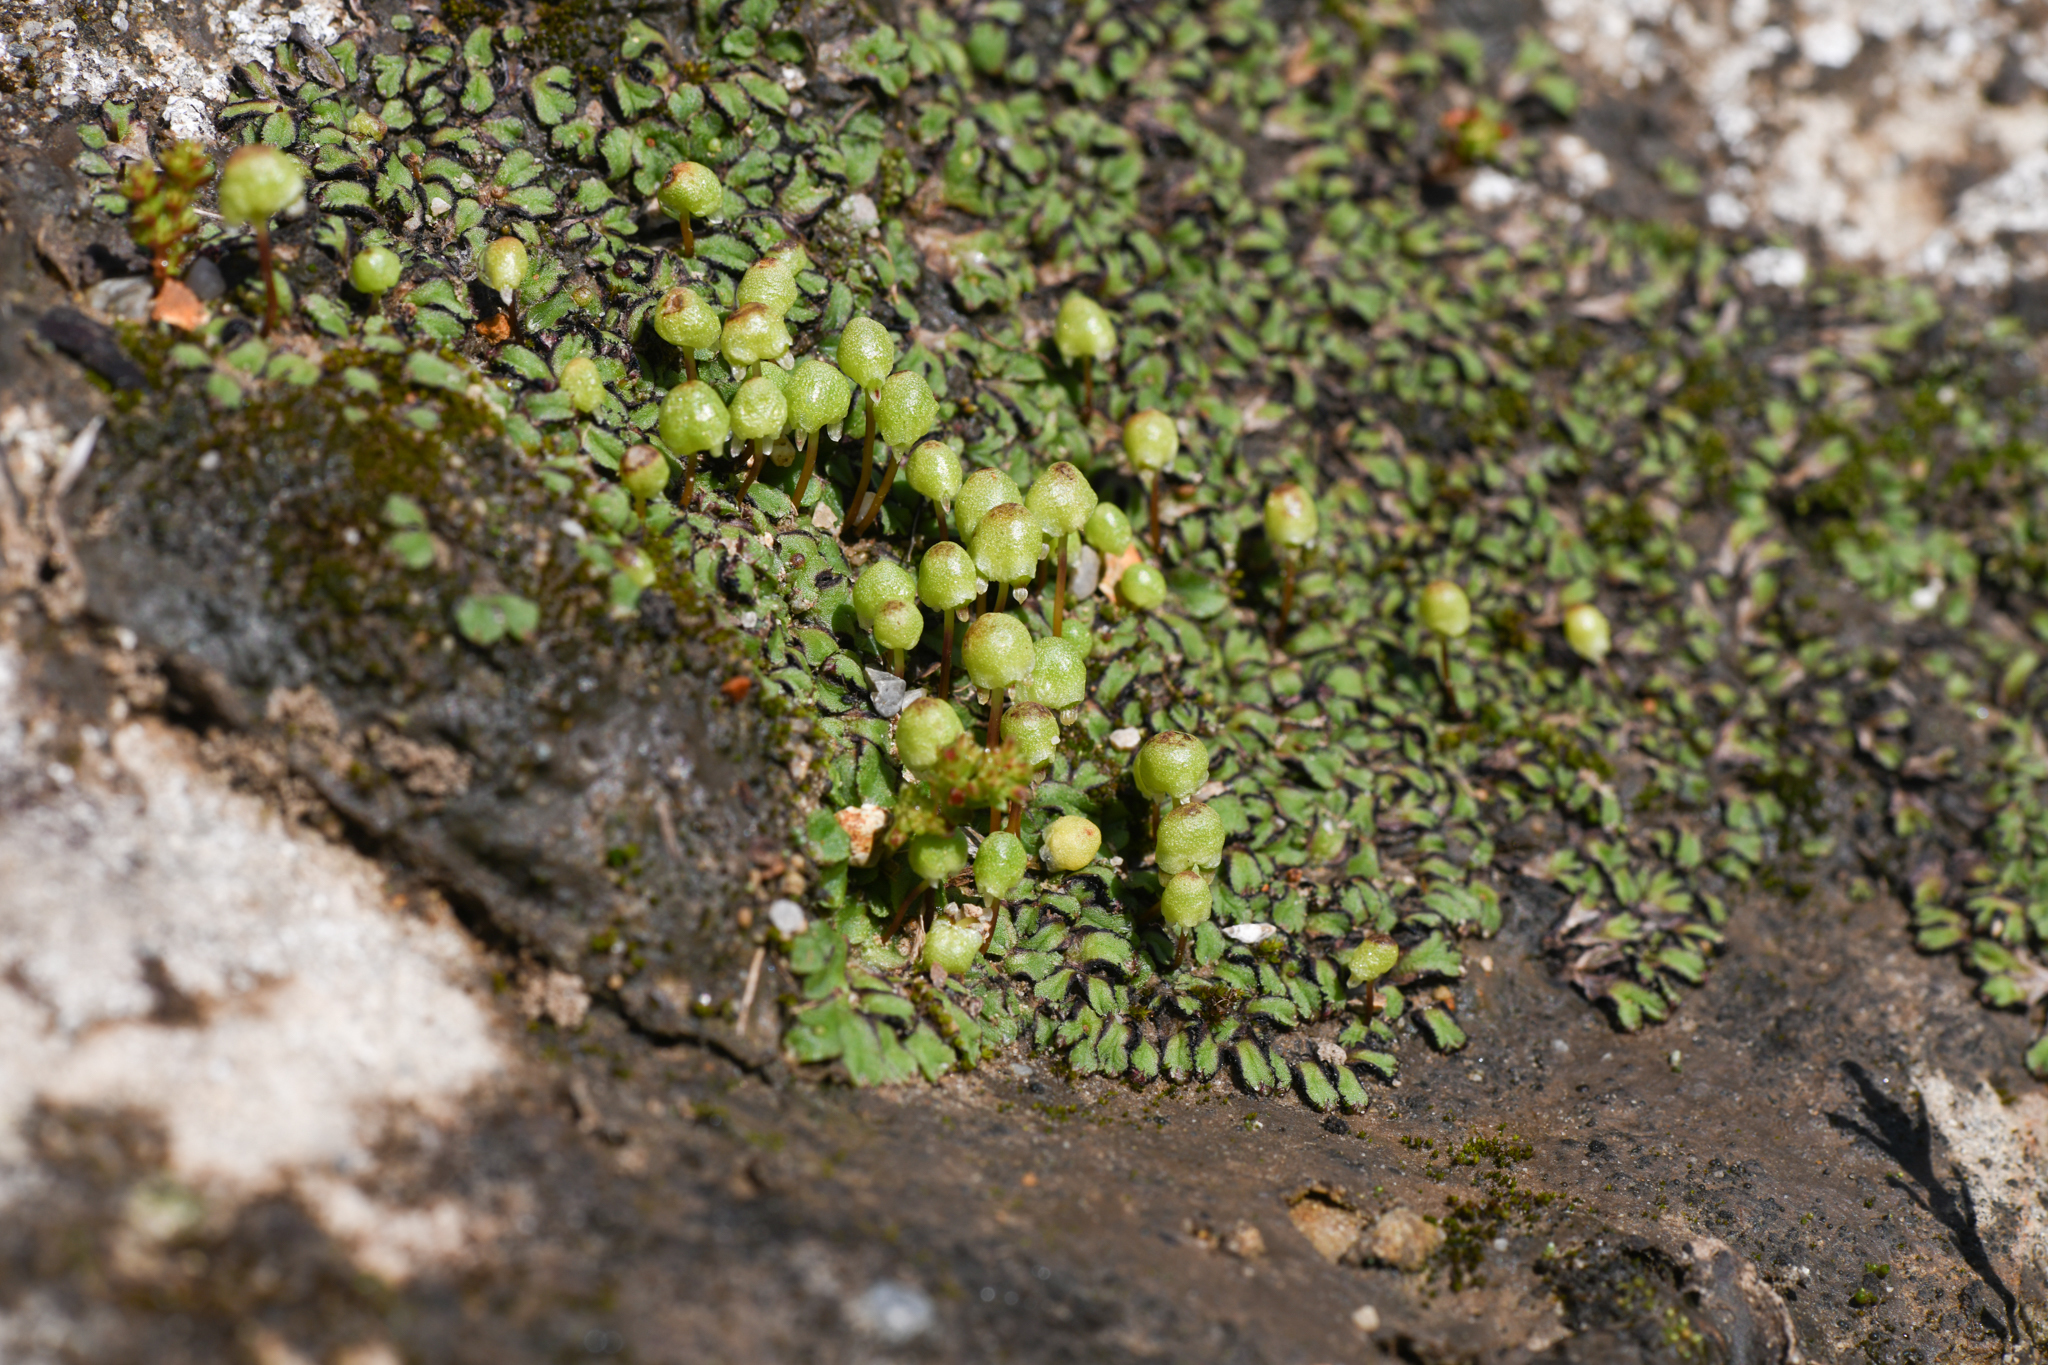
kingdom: Plantae
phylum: Marchantiophyta
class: Marchantiopsida
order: Marchantiales
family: Aytoniaceae
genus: Asterella
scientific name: Asterella palmeri
